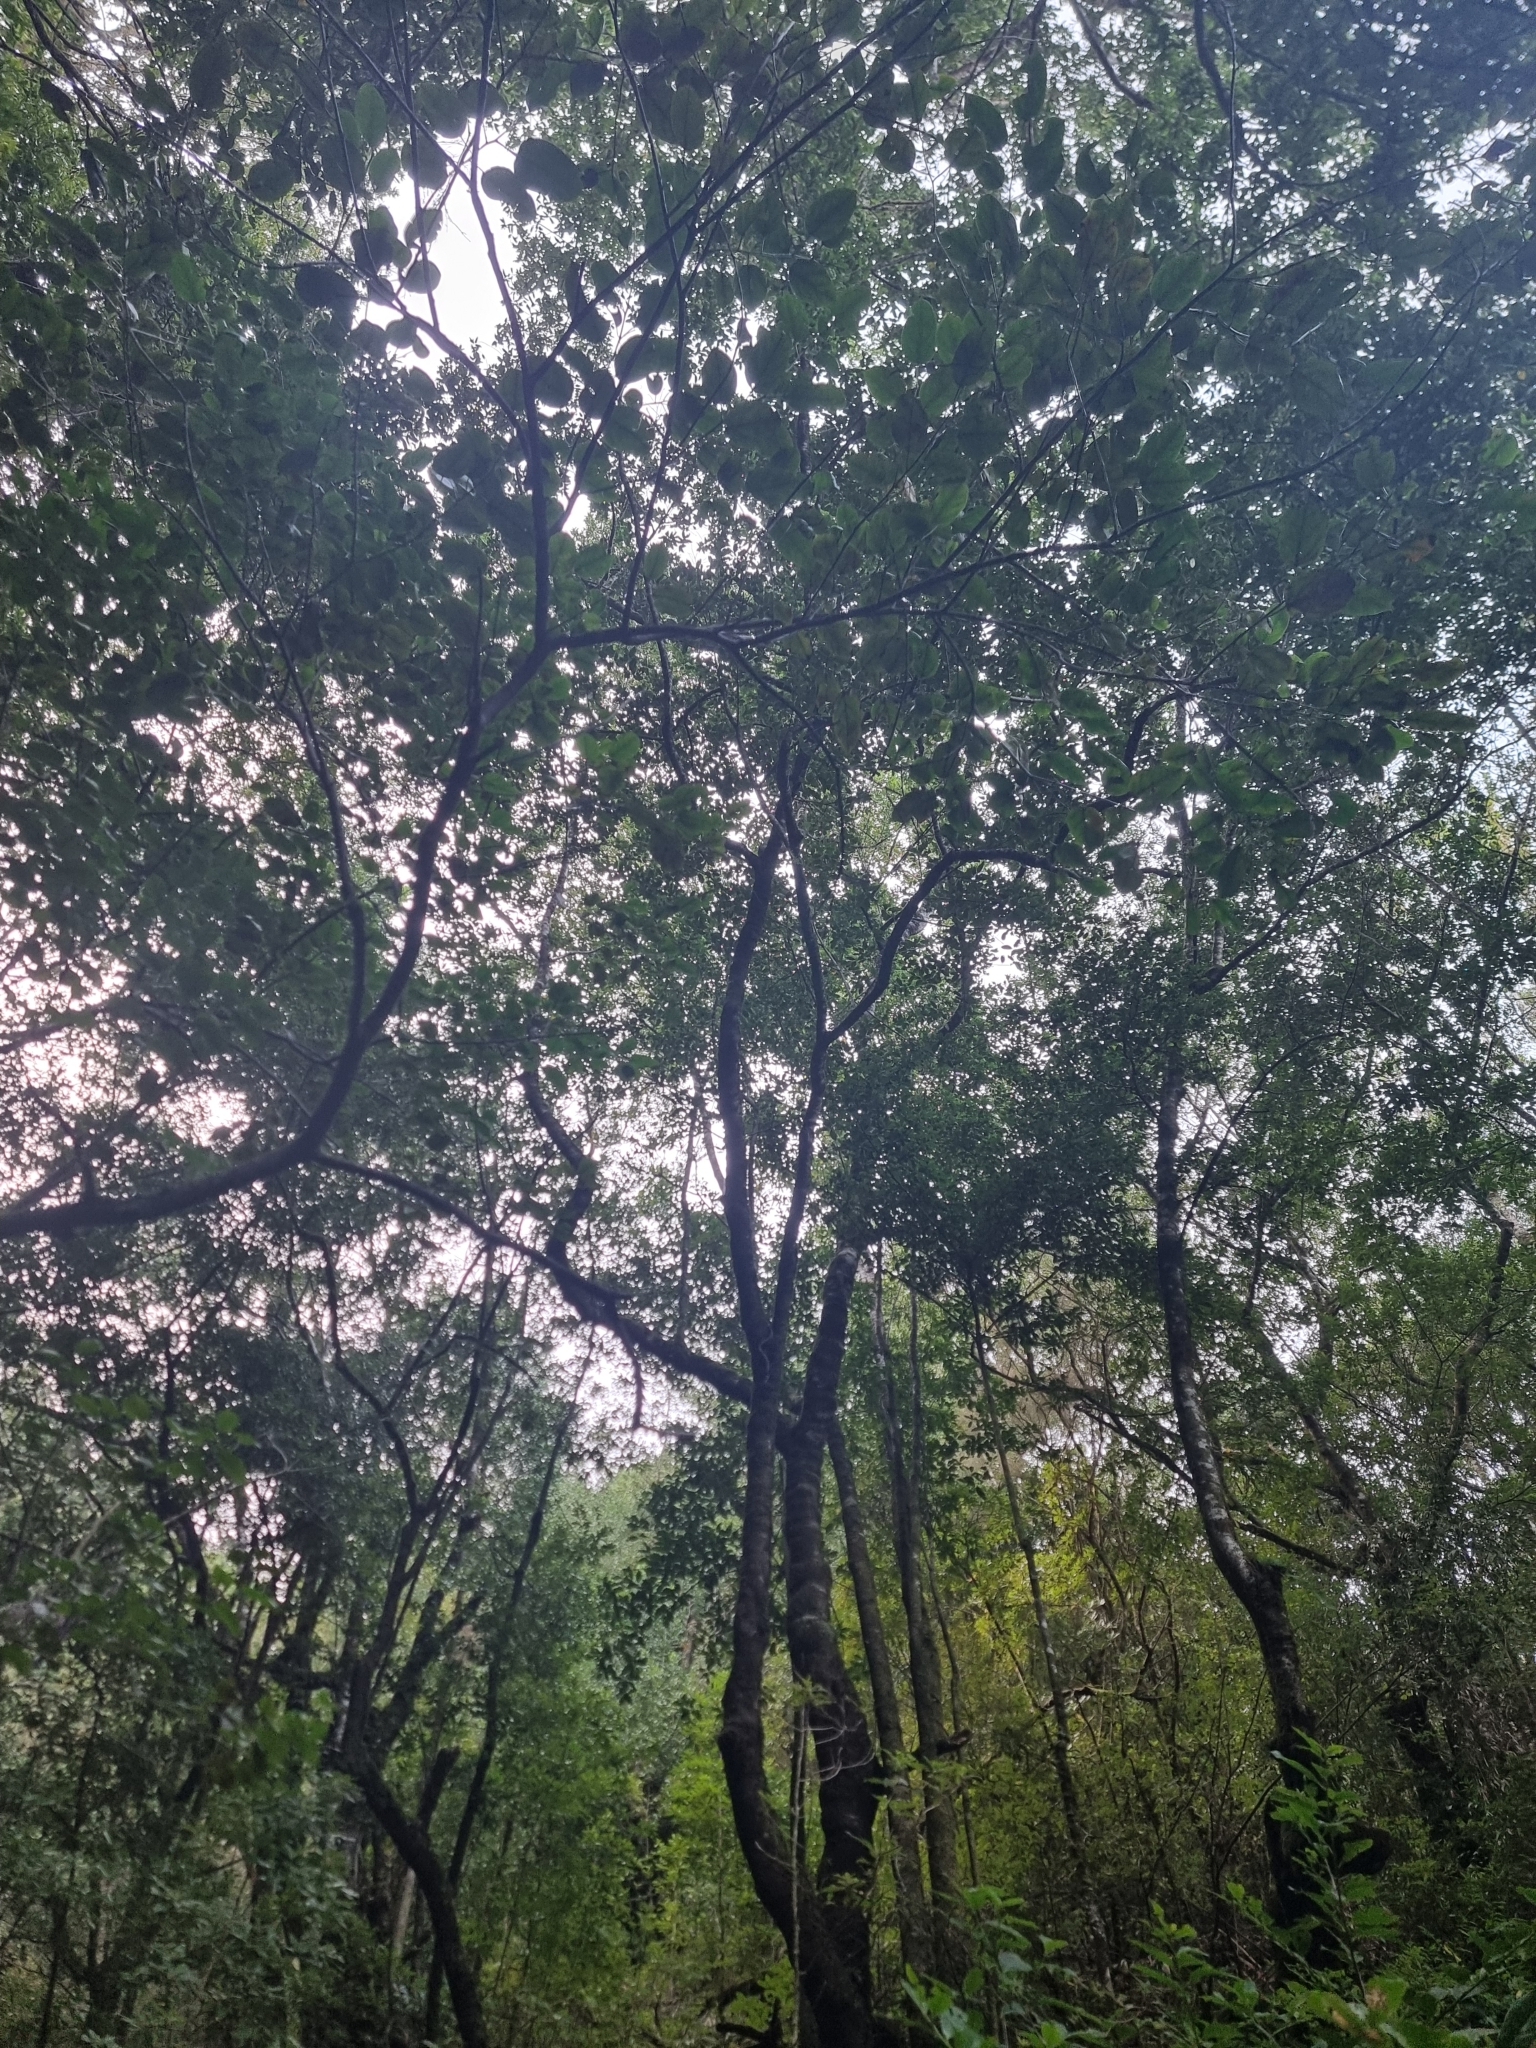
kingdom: Plantae
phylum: Tracheophyta
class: Magnoliopsida
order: Rosales
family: Rhamnaceae
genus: Rhamnus
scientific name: Rhamnus glandulosa
